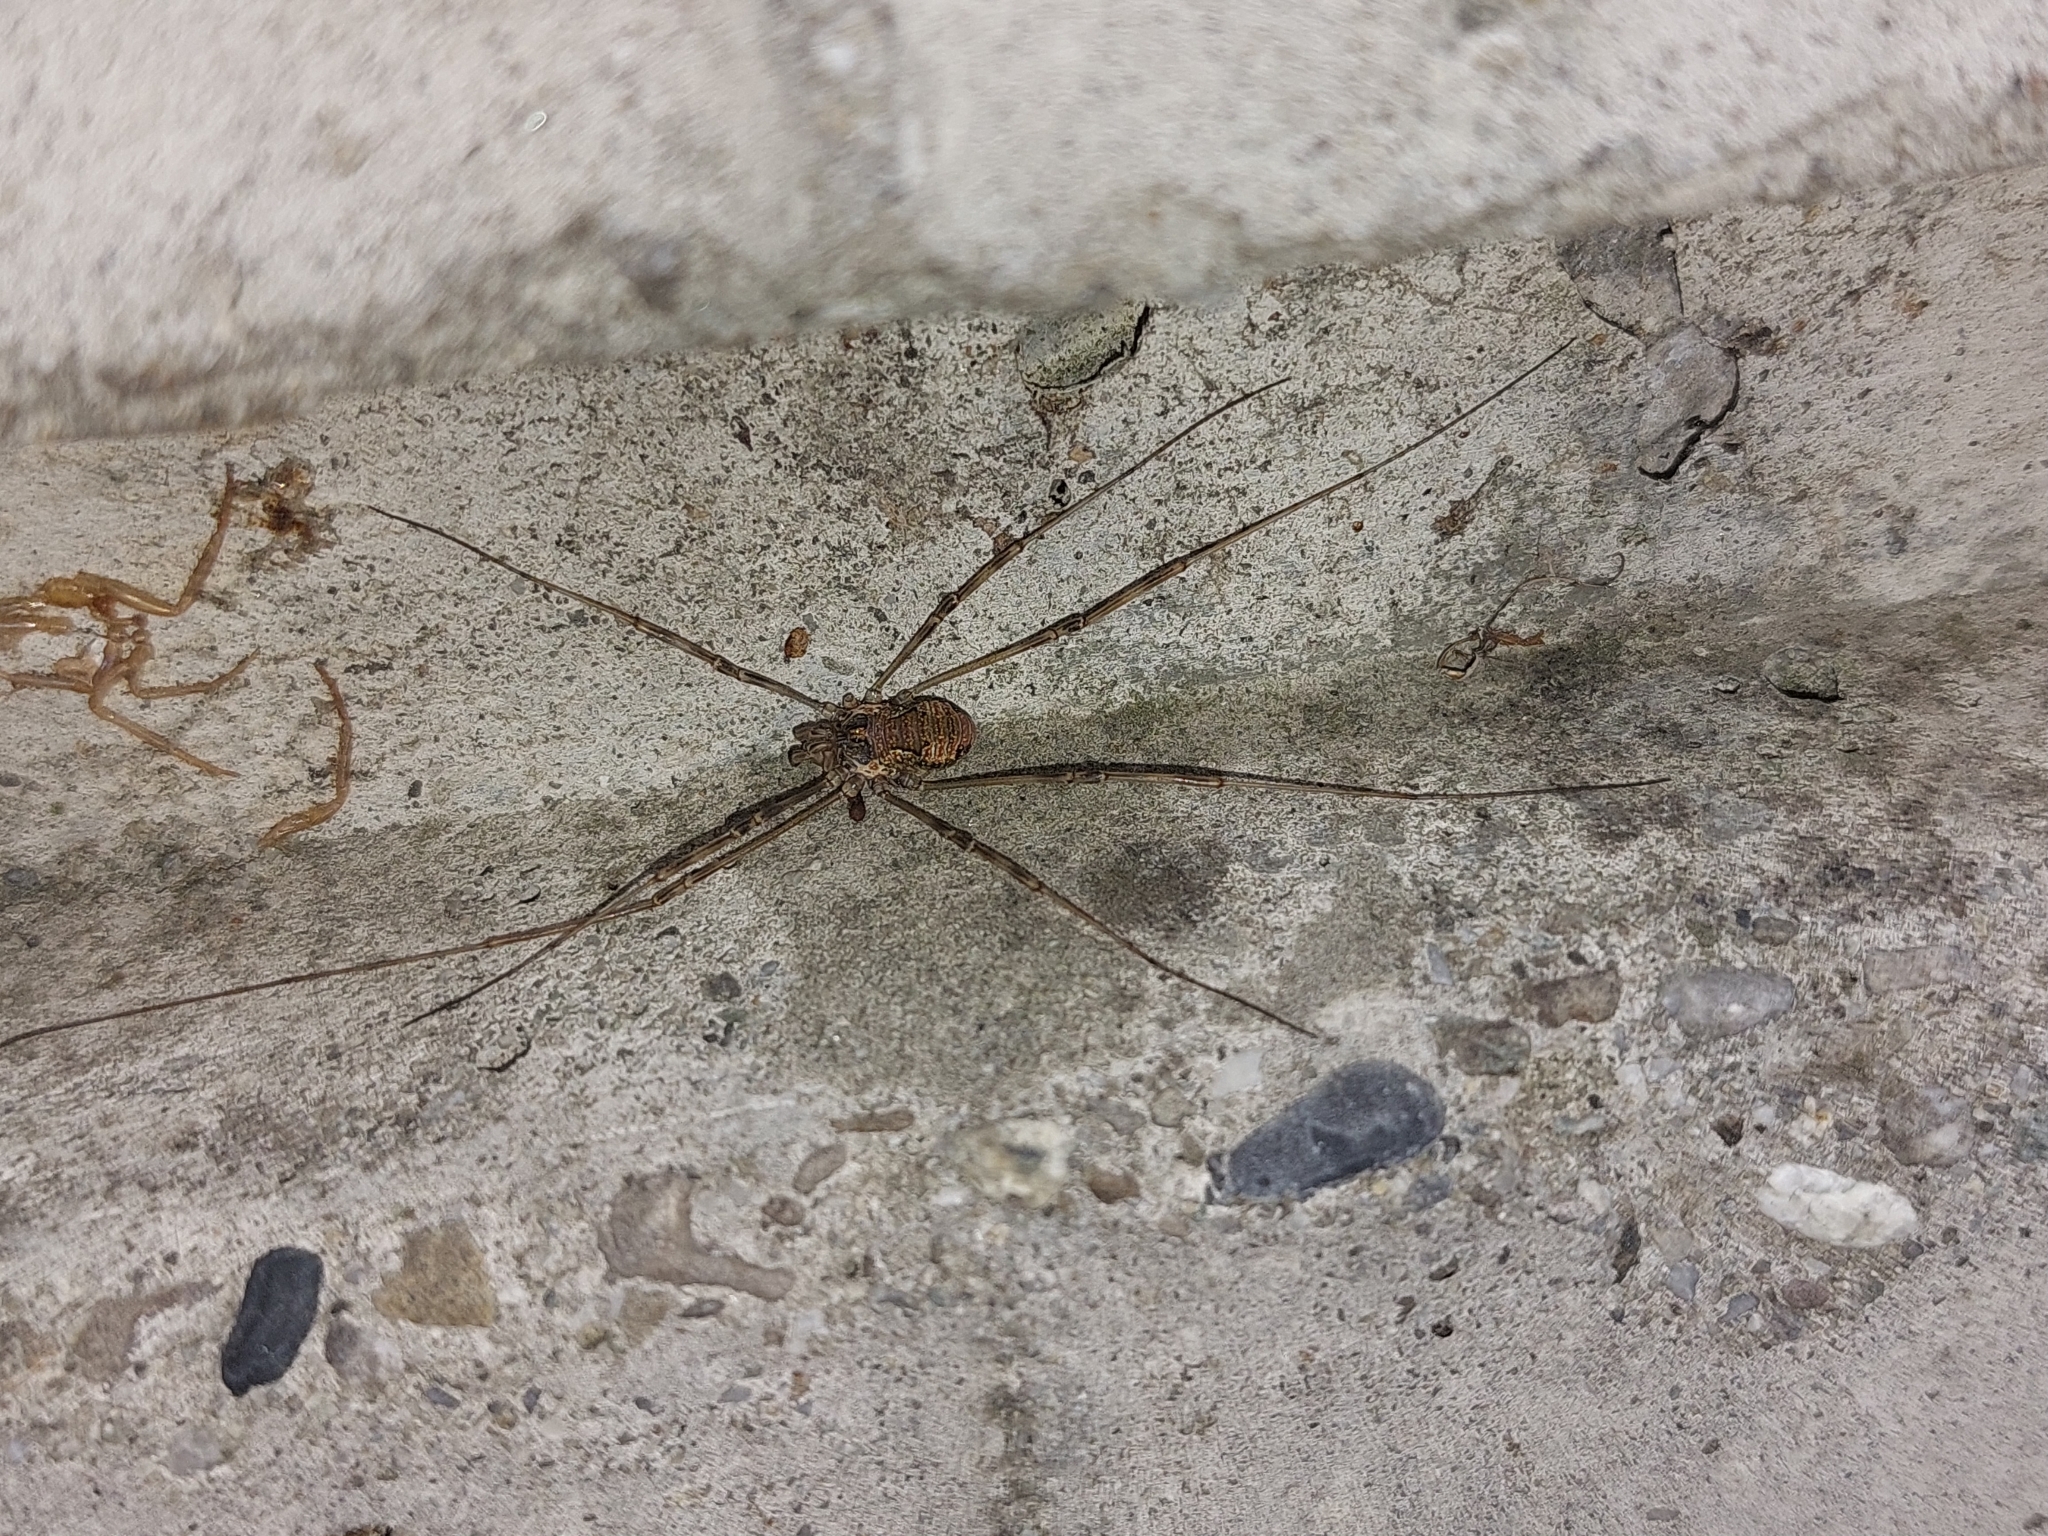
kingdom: Animalia
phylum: Arthropoda
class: Arachnida
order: Opiliones
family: Phalangiidae
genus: Dasylobus
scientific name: Dasylobus graniferus
